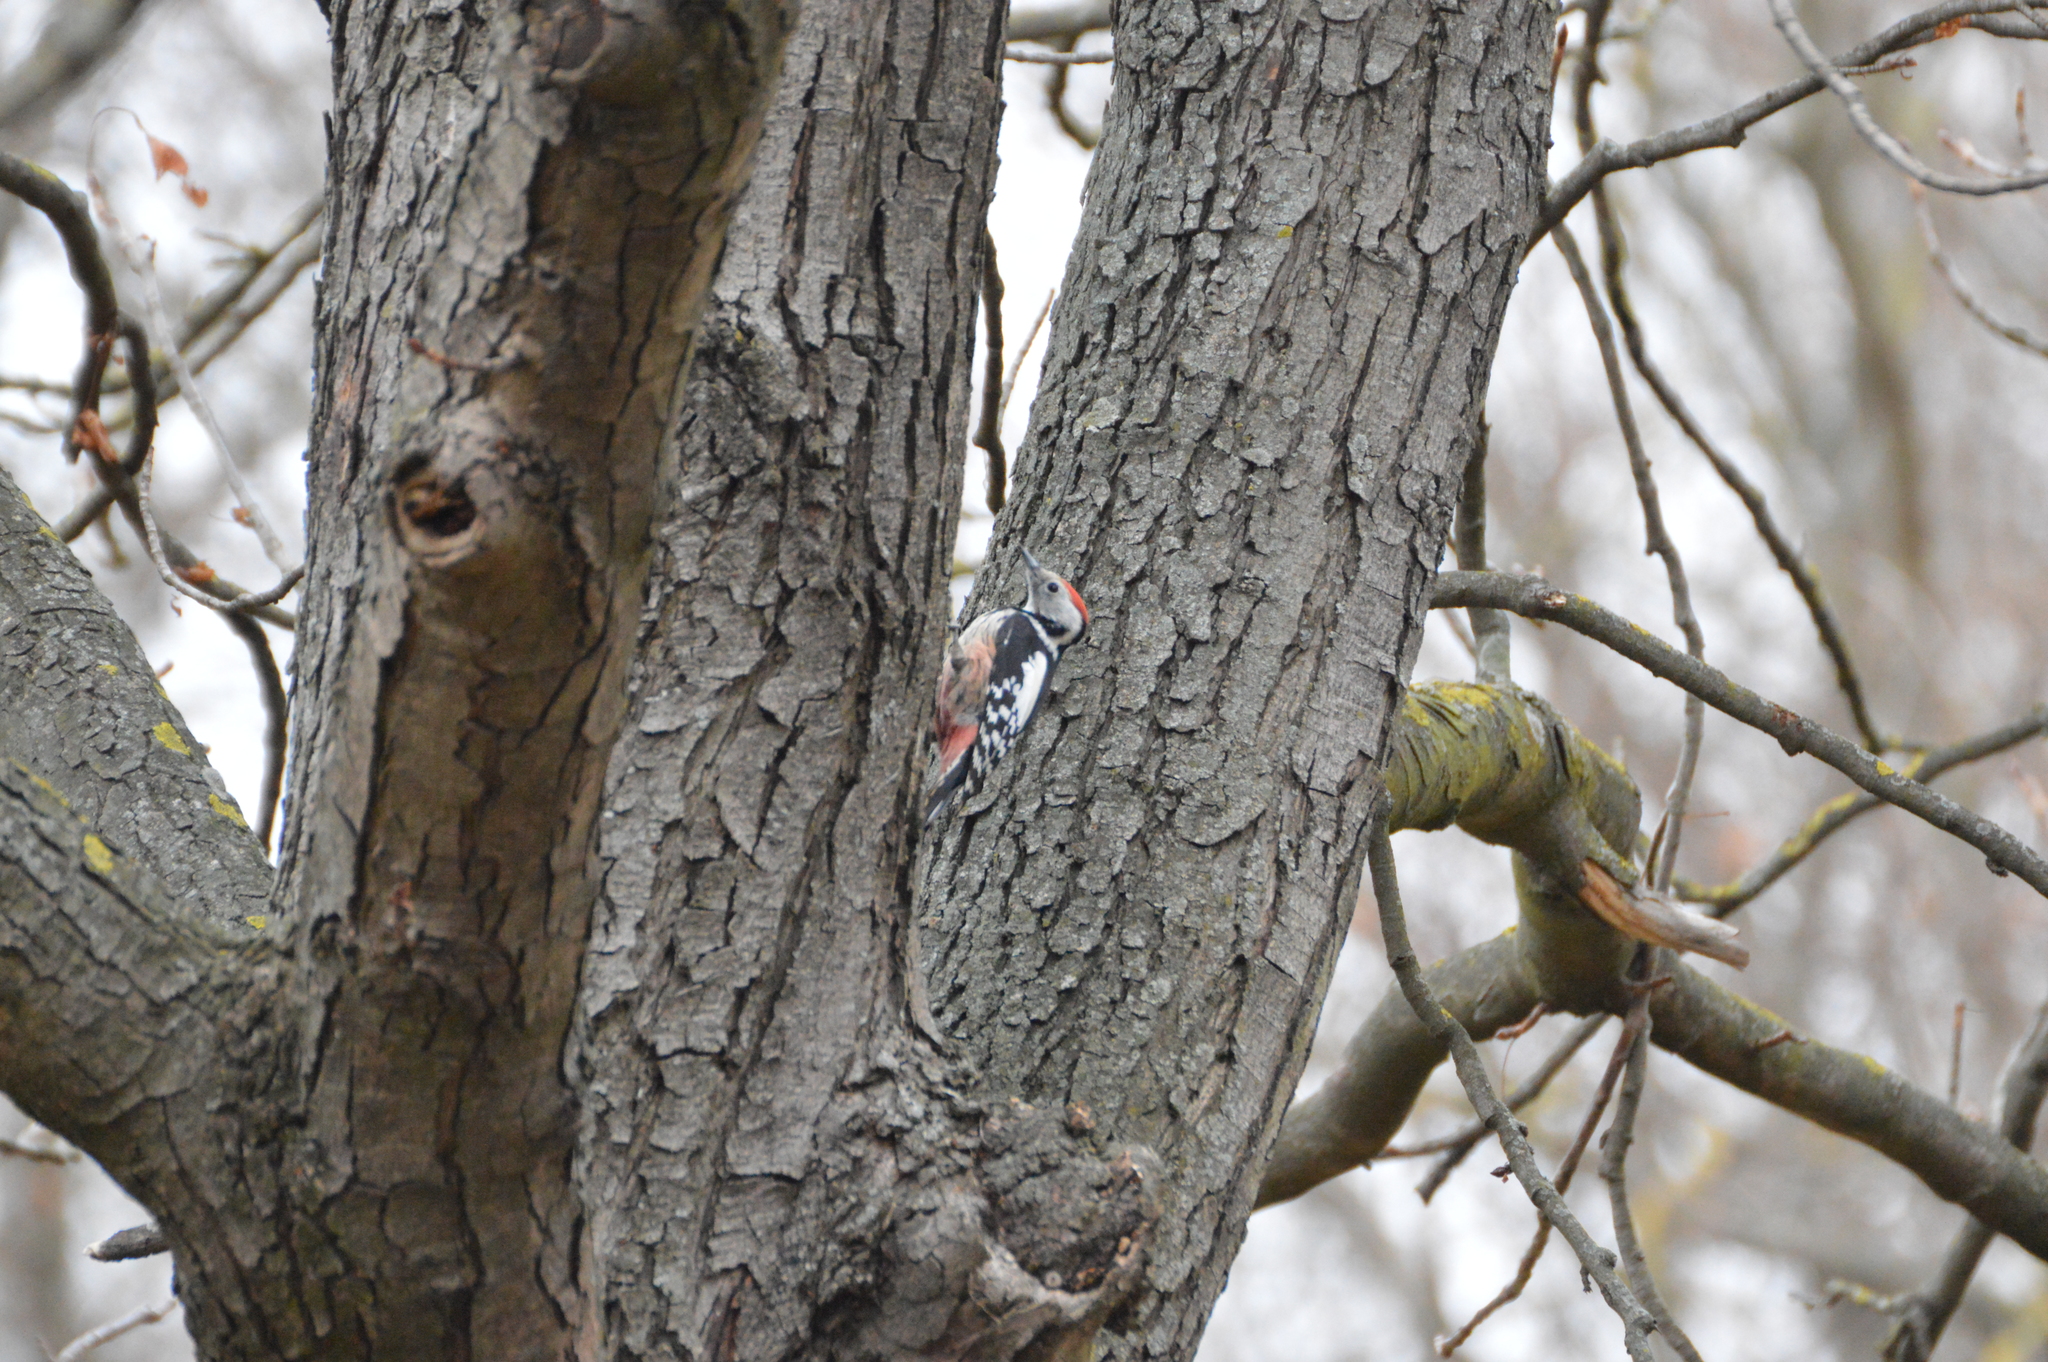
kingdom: Animalia
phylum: Chordata
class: Aves
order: Piciformes
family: Picidae
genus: Dendrocoptes
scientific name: Dendrocoptes medius
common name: Middle spotted woodpecker
